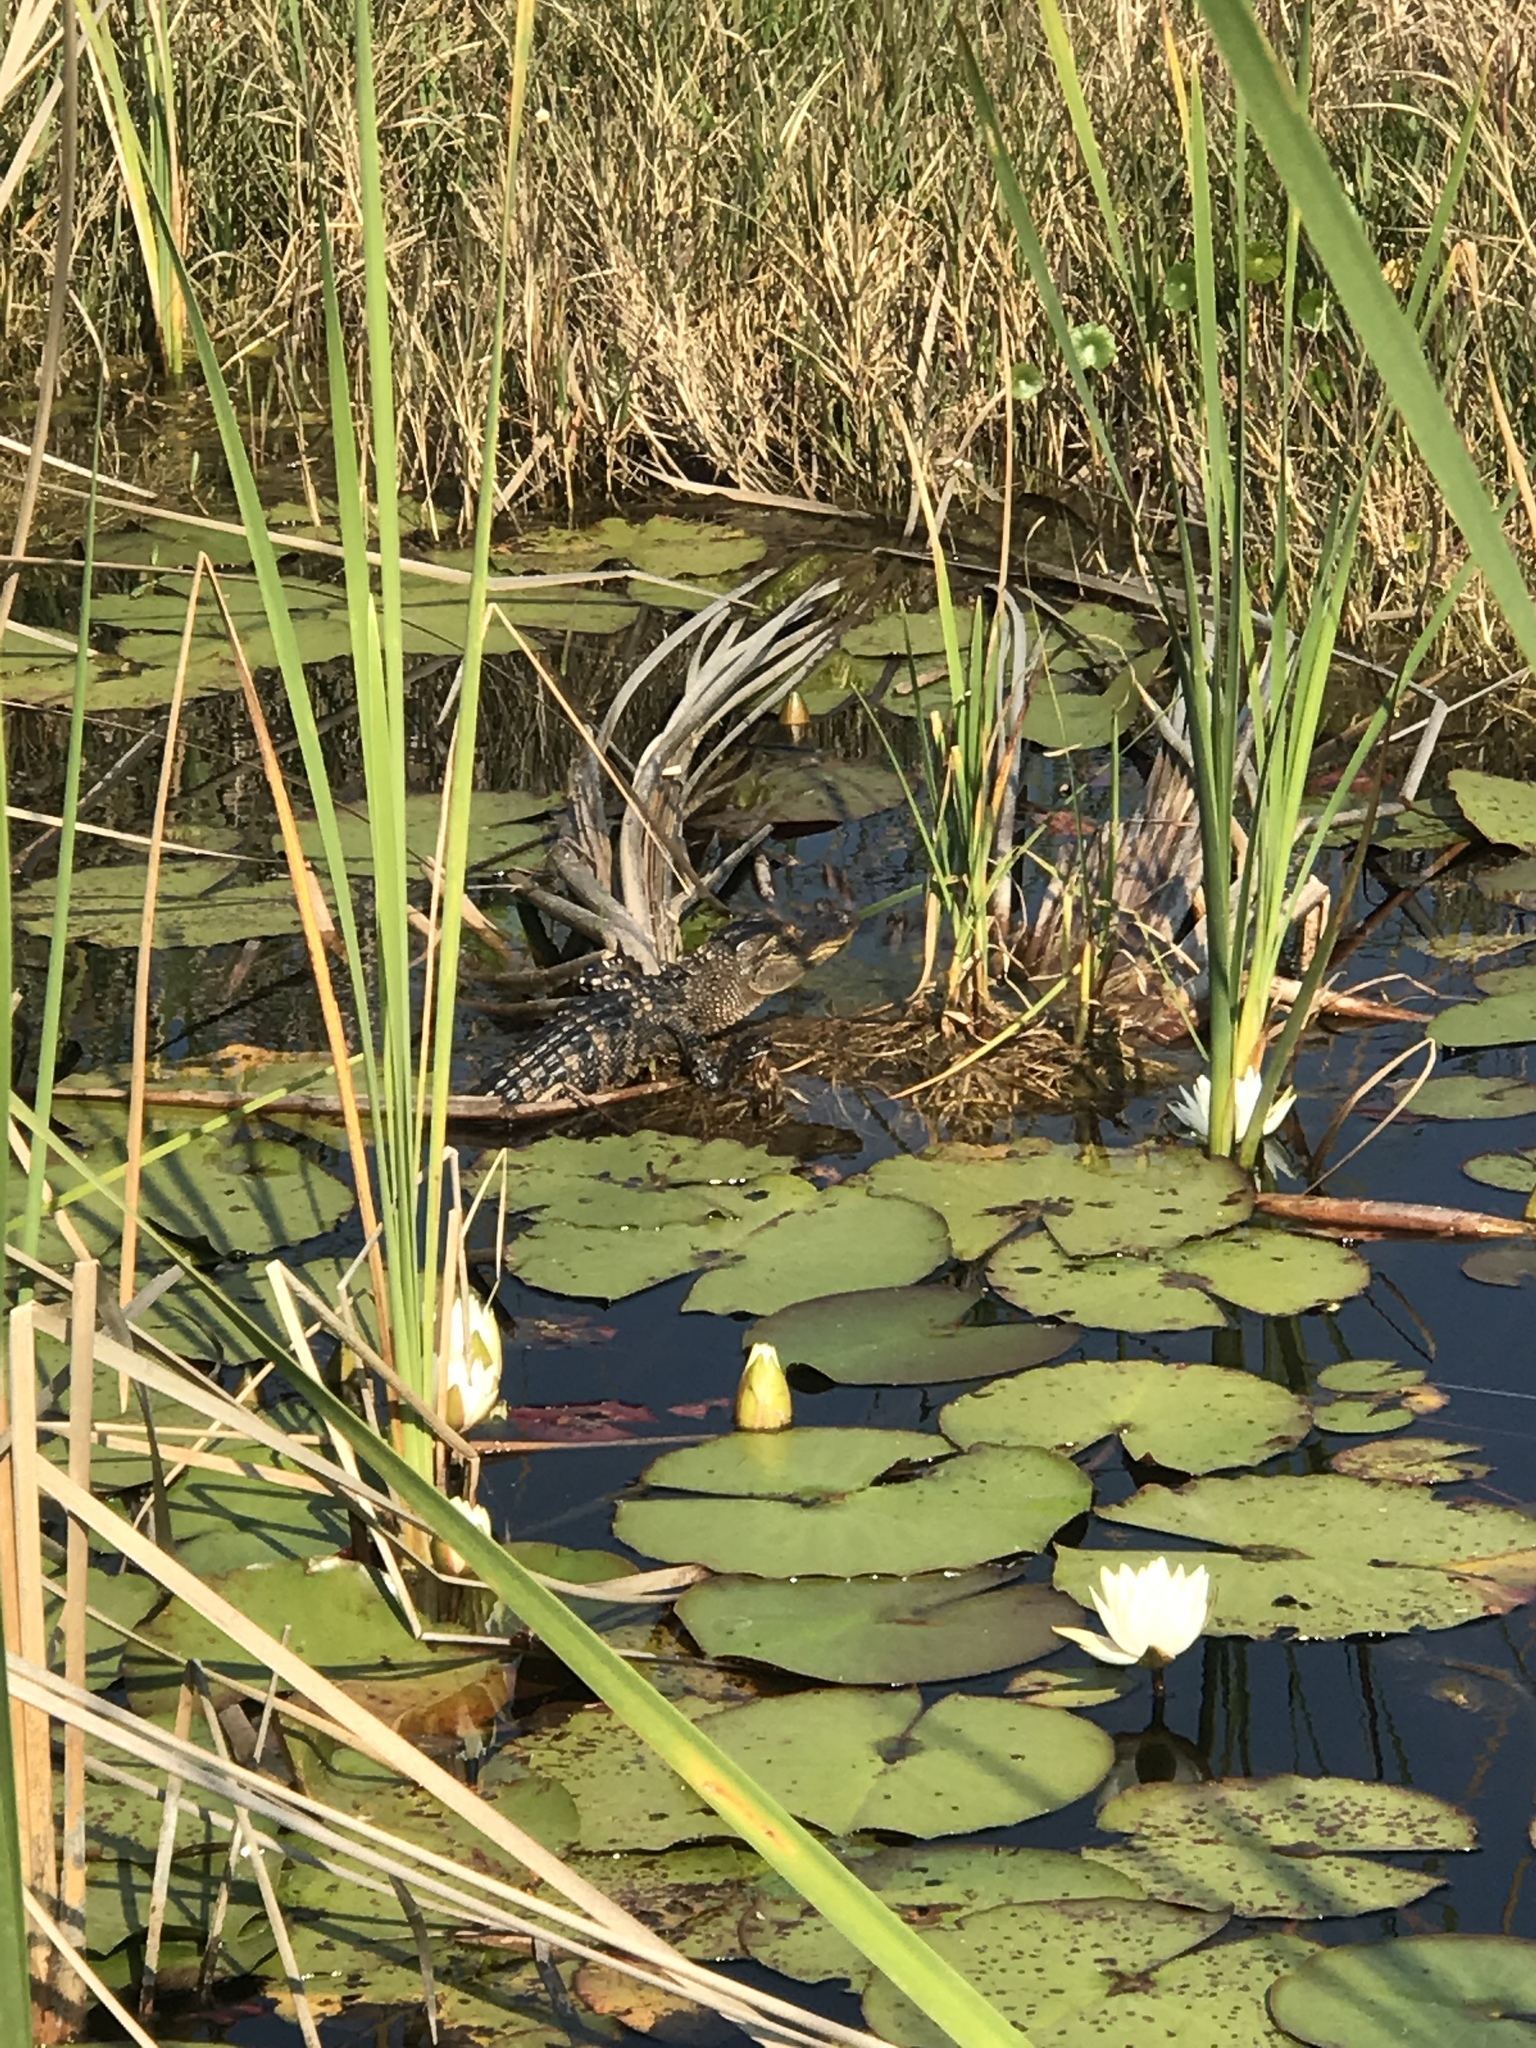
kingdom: Animalia
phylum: Chordata
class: Crocodylia
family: Alligatoridae
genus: Alligator
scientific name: Alligator mississippiensis
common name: American alligator
